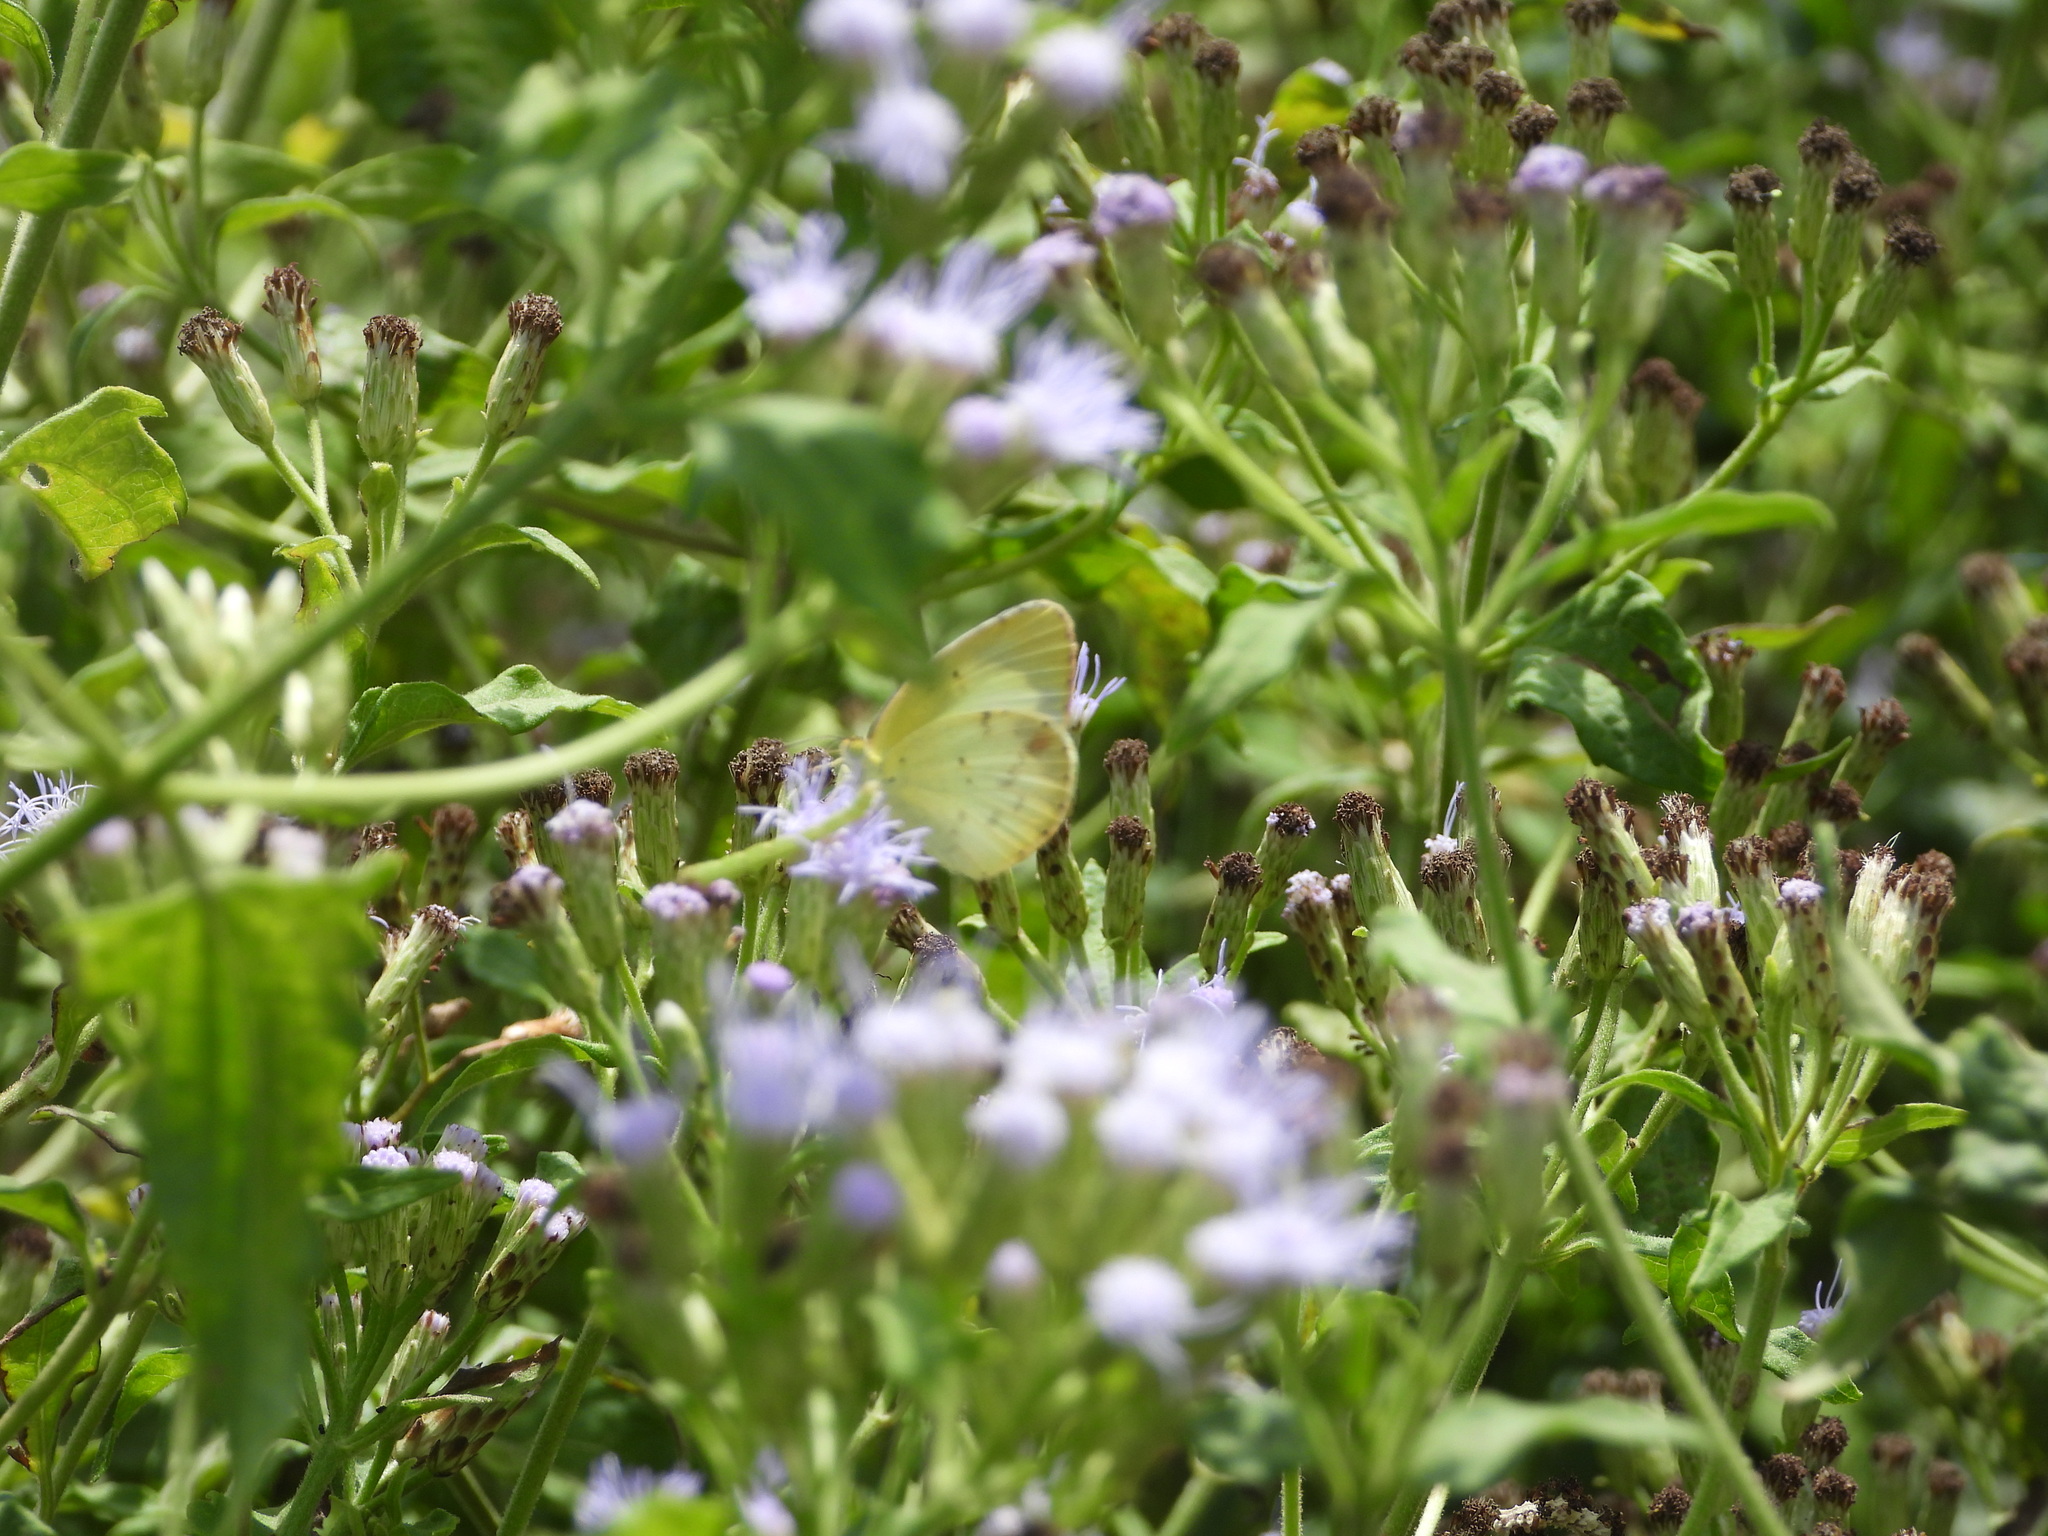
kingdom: Animalia
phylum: Arthropoda
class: Insecta
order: Lepidoptera
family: Pieridae
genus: Pyrisitia
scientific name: Pyrisitia lisa
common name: Little yellow
